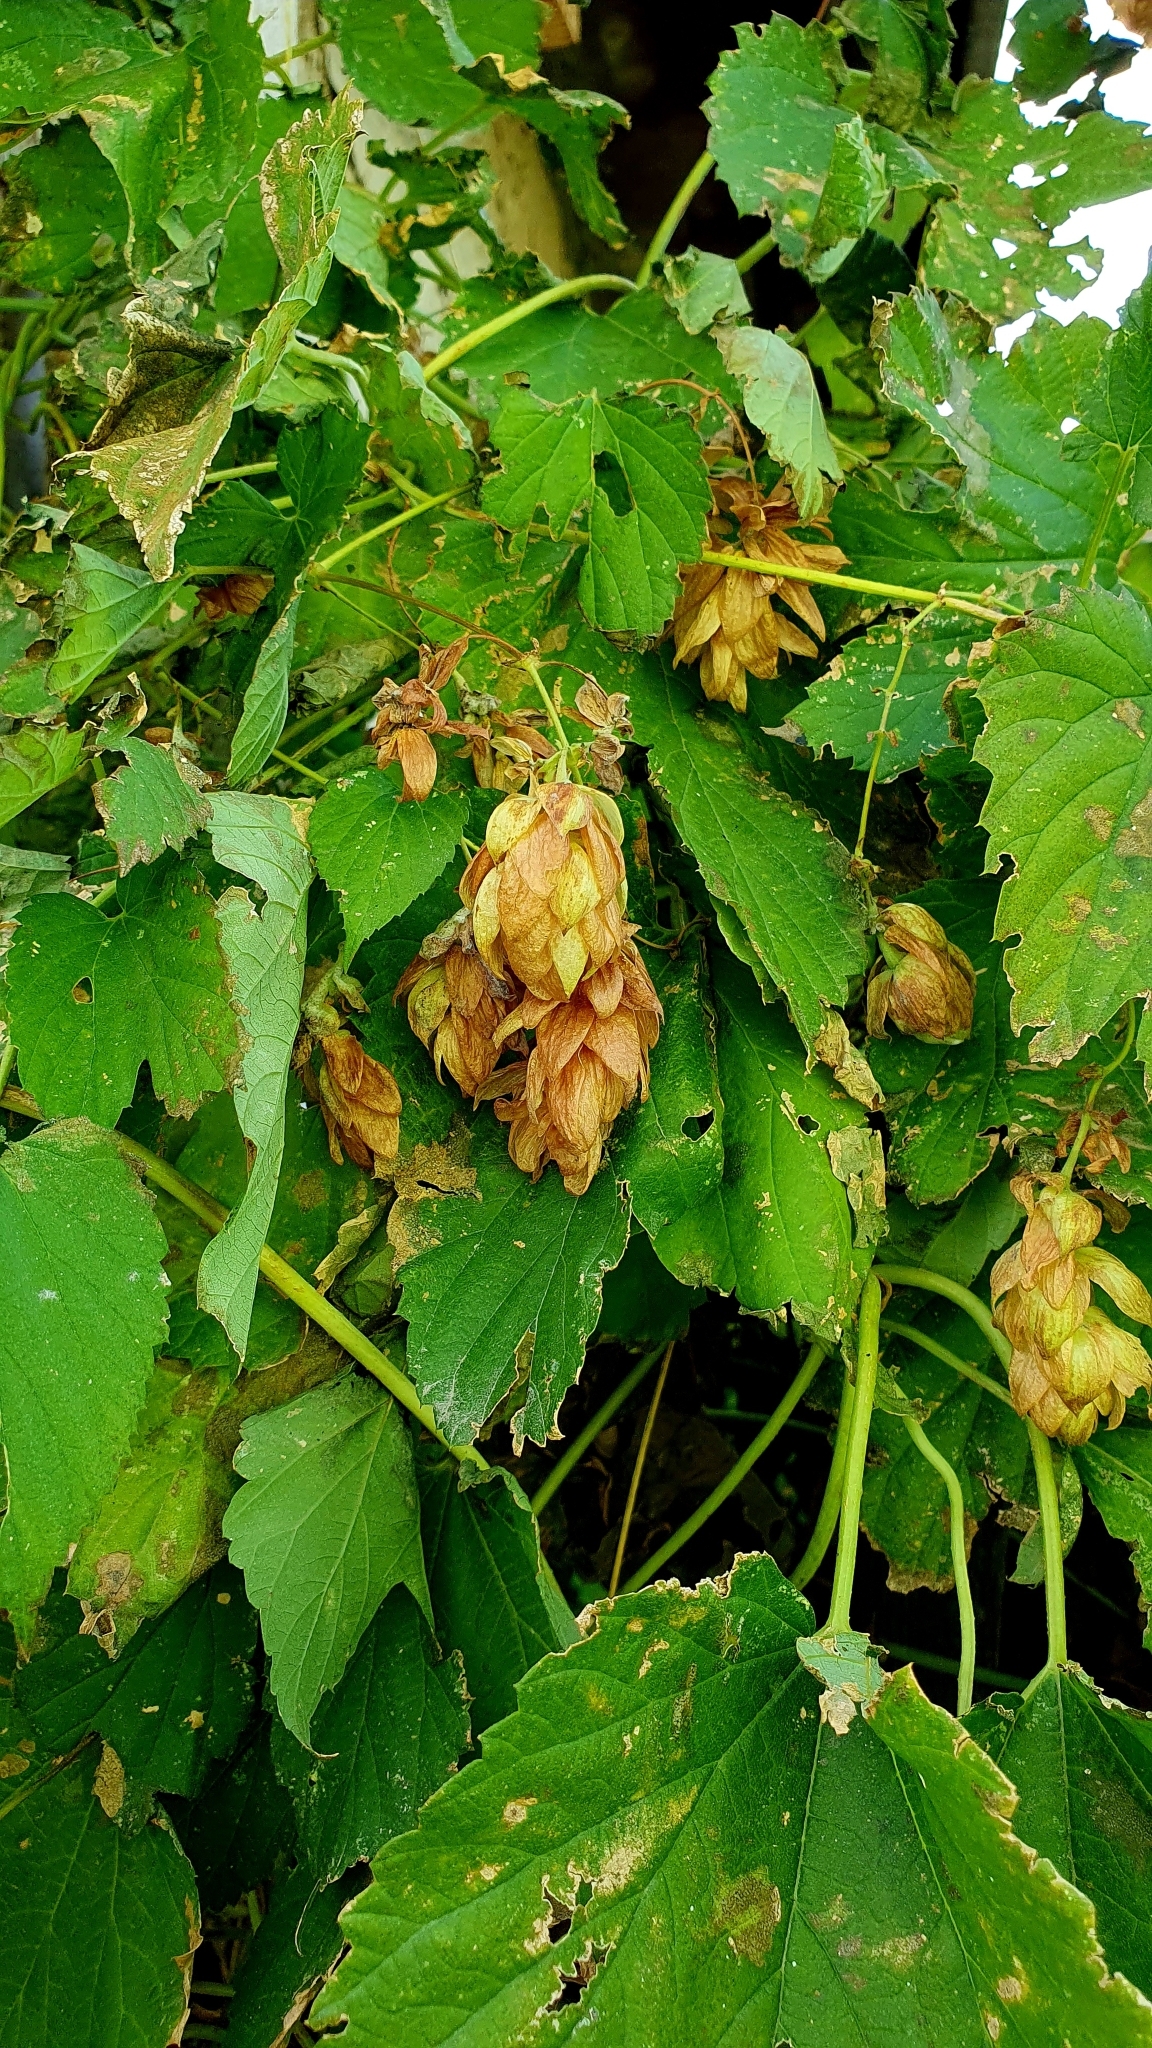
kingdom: Plantae
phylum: Tracheophyta
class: Magnoliopsida
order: Rosales
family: Cannabaceae
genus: Humulus
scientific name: Humulus lupulus
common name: Hop
